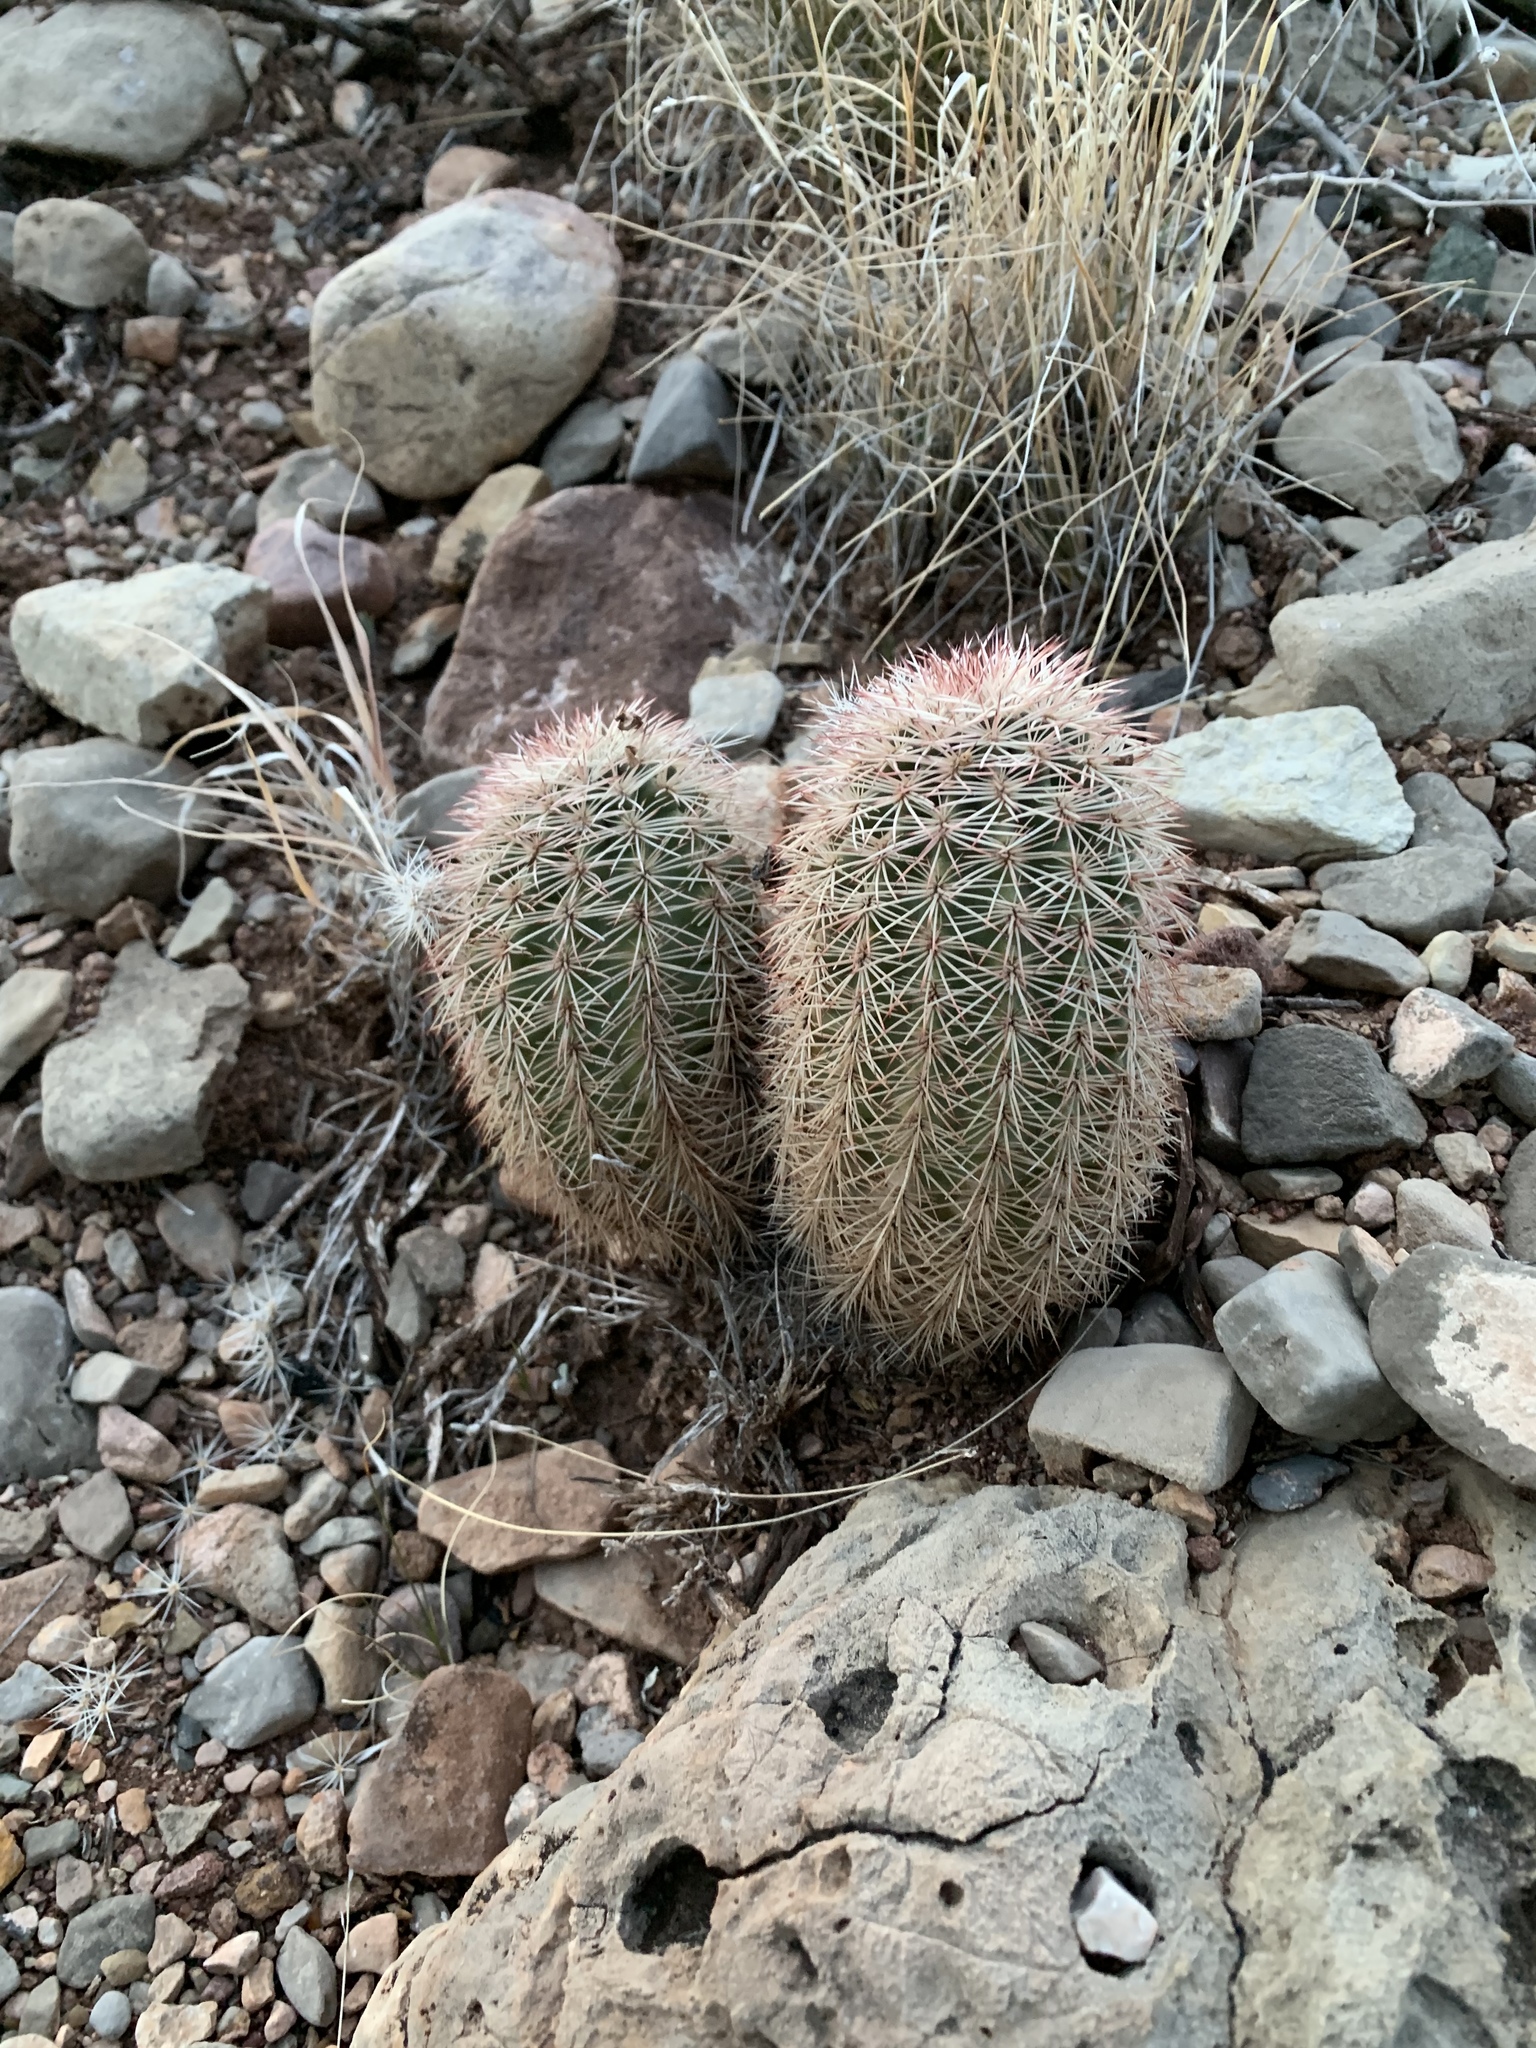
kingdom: Plantae
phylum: Tracheophyta
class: Magnoliopsida
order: Caryophyllales
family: Cactaceae
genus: Echinocereus
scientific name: Echinocereus dasyacanthus
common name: Spiny hedgehog cactus
